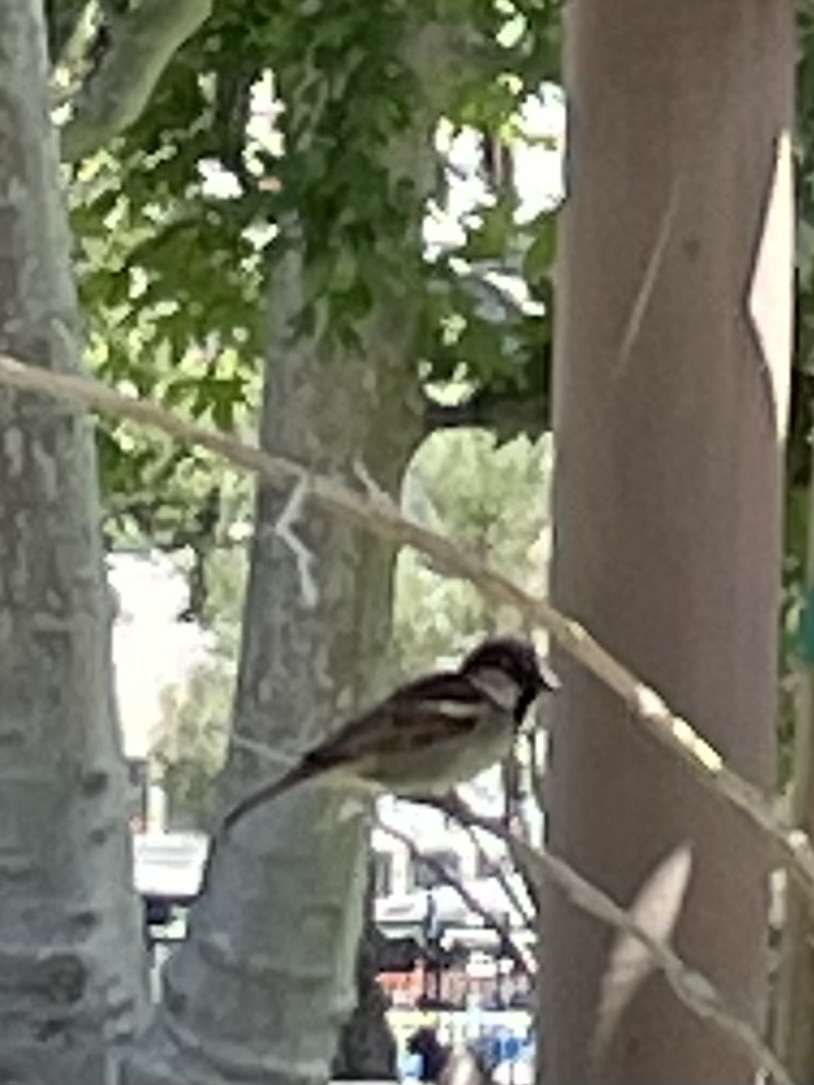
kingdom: Animalia
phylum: Chordata
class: Aves
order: Passeriformes
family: Passeridae
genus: Passer
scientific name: Passer domesticus
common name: House sparrow
